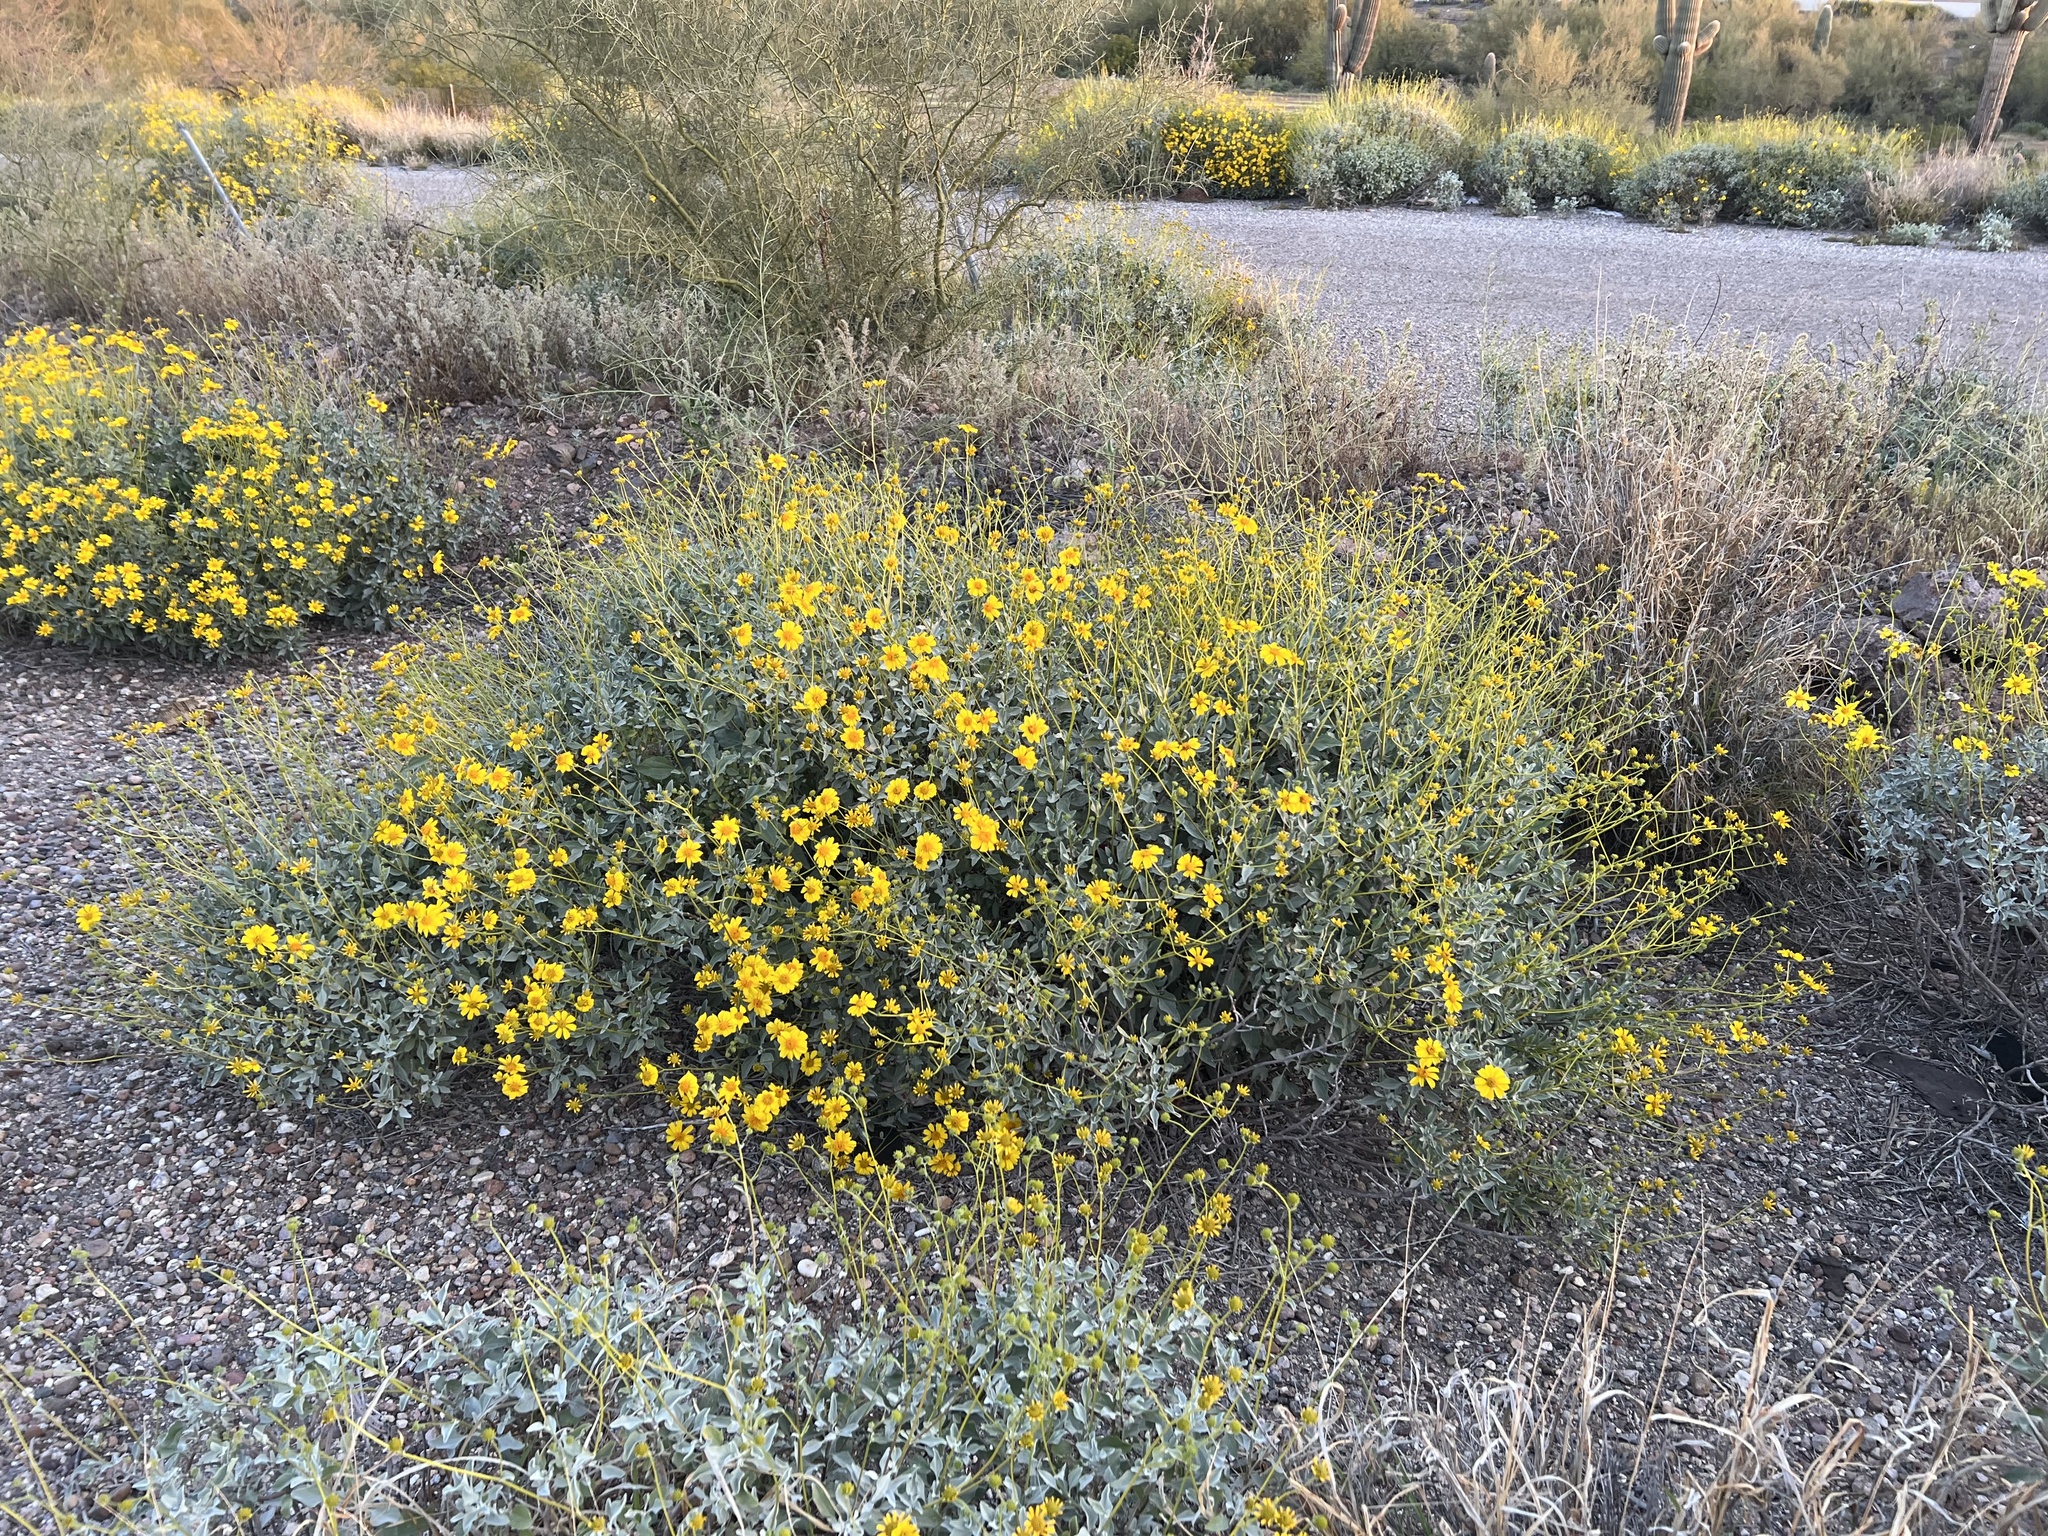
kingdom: Plantae
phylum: Tracheophyta
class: Magnoliopsida
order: Asterales
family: Asteraceae
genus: Encelia
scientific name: Encelia farinosa
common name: Brittlebush
